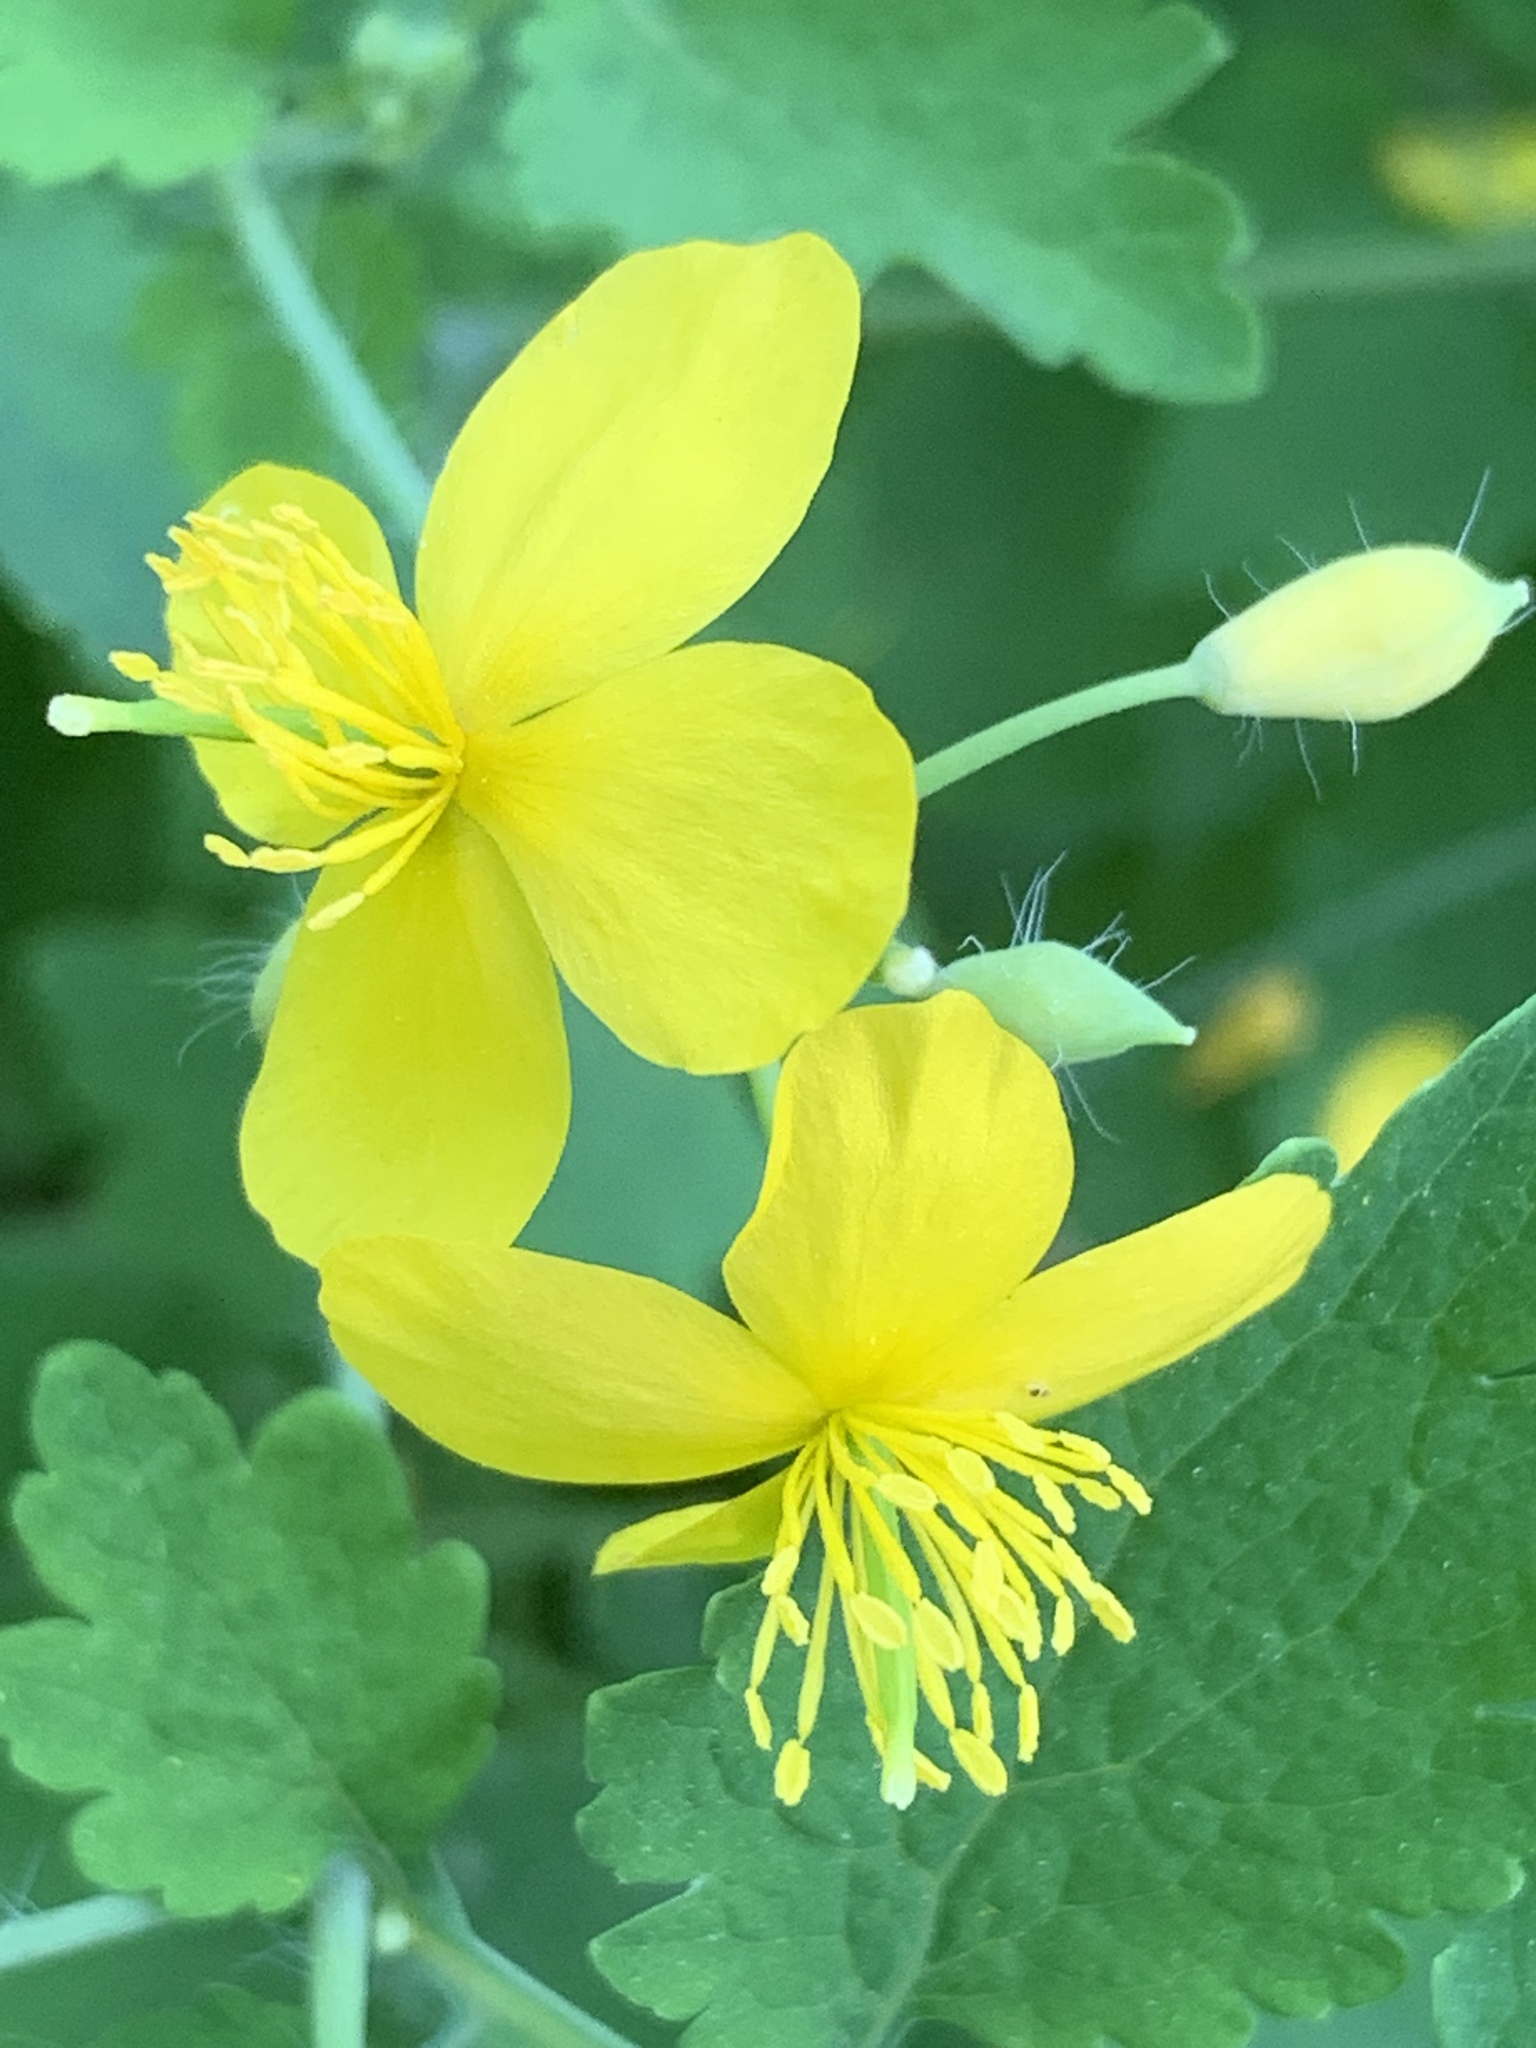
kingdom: Plantae
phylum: Tracheophyta
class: Magnoliopsida
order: Ranunculales
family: Papaveraceae
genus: Chelidonium
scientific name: Chelidonium majus
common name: Greater celandine
